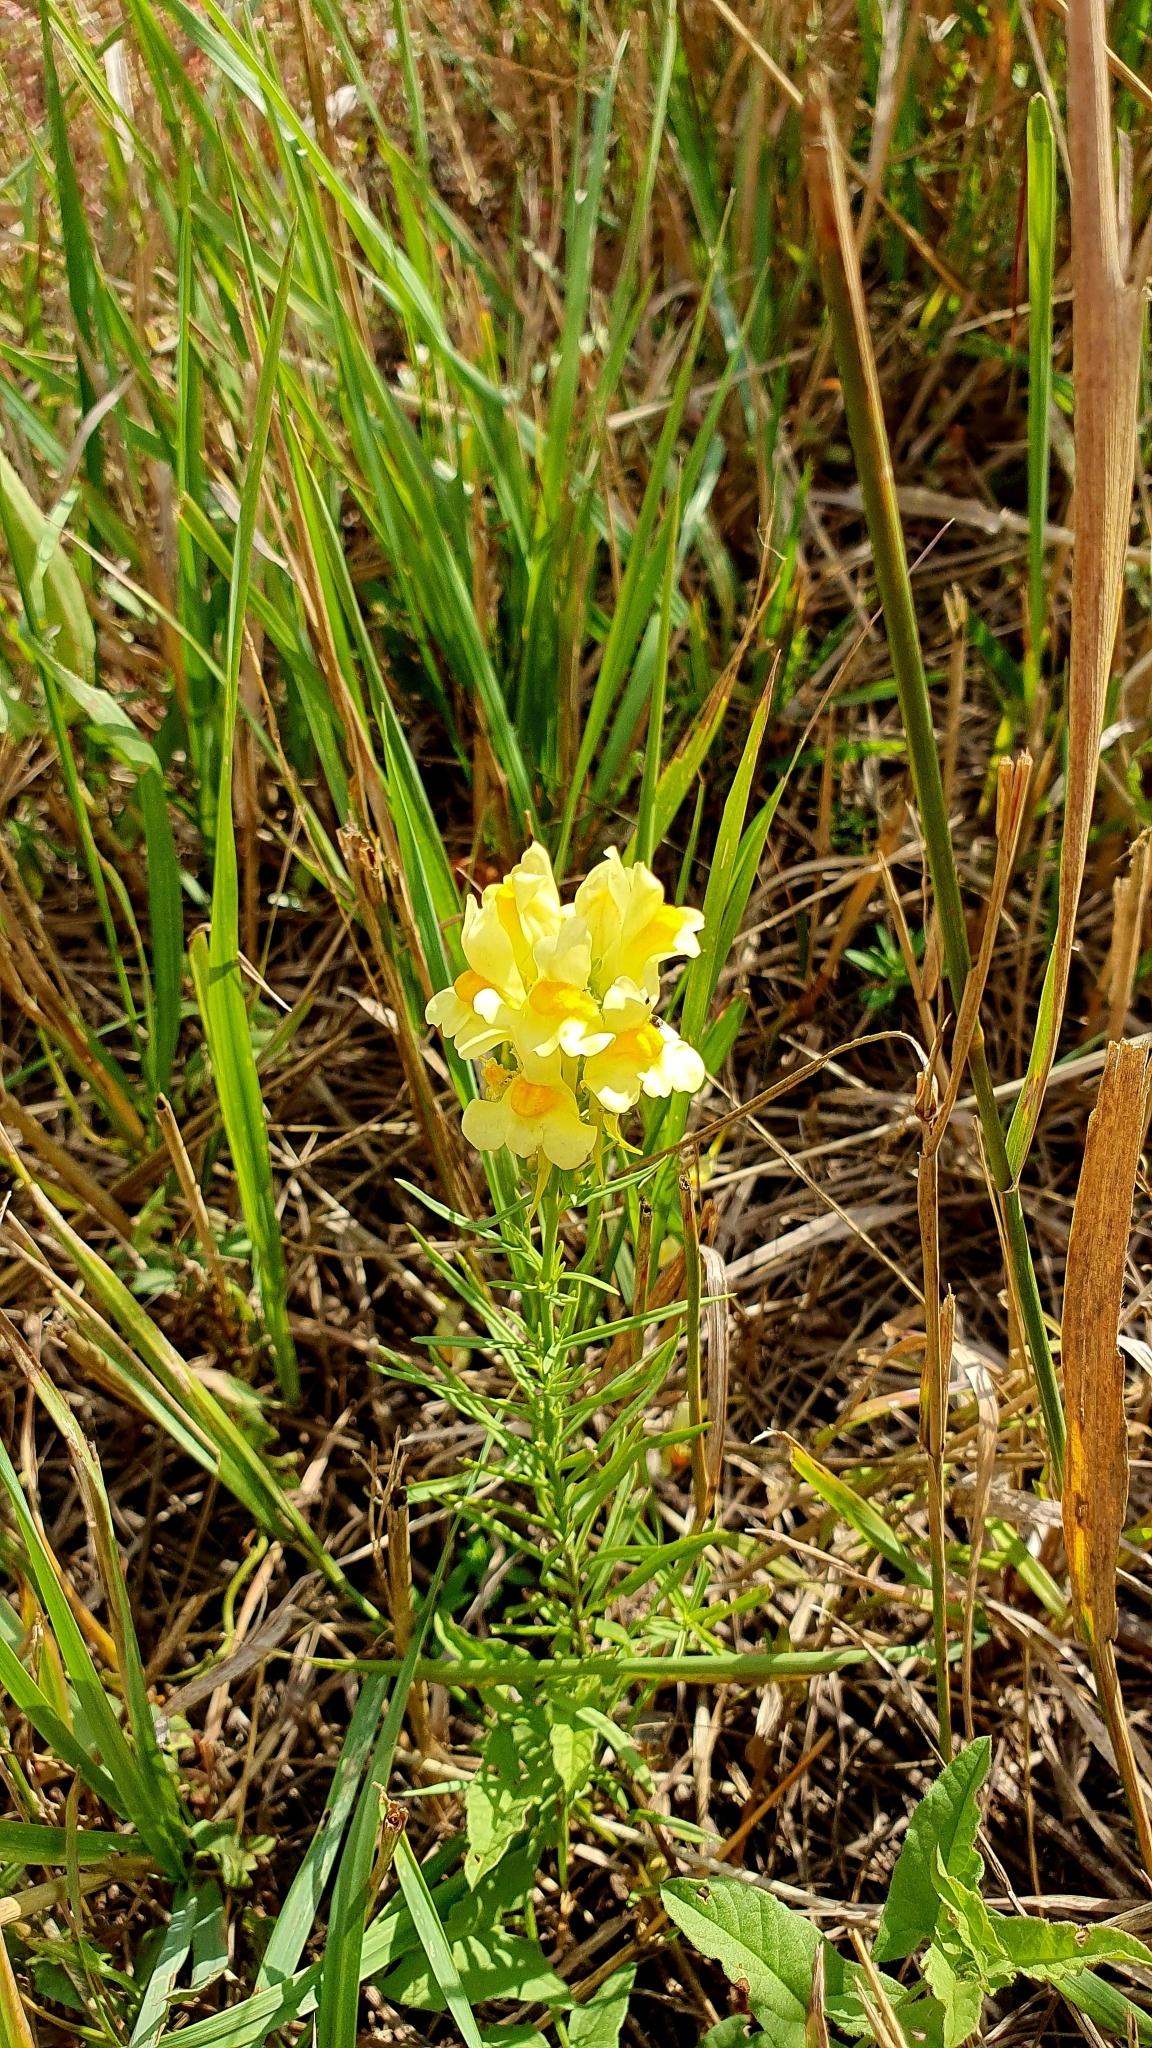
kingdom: Plantae
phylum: Tracheophyta
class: Magnoliopsida
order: Lamiales
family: Plantaginaceae
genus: Linaria
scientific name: Linaria vulgaris
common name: Butter and eggs
